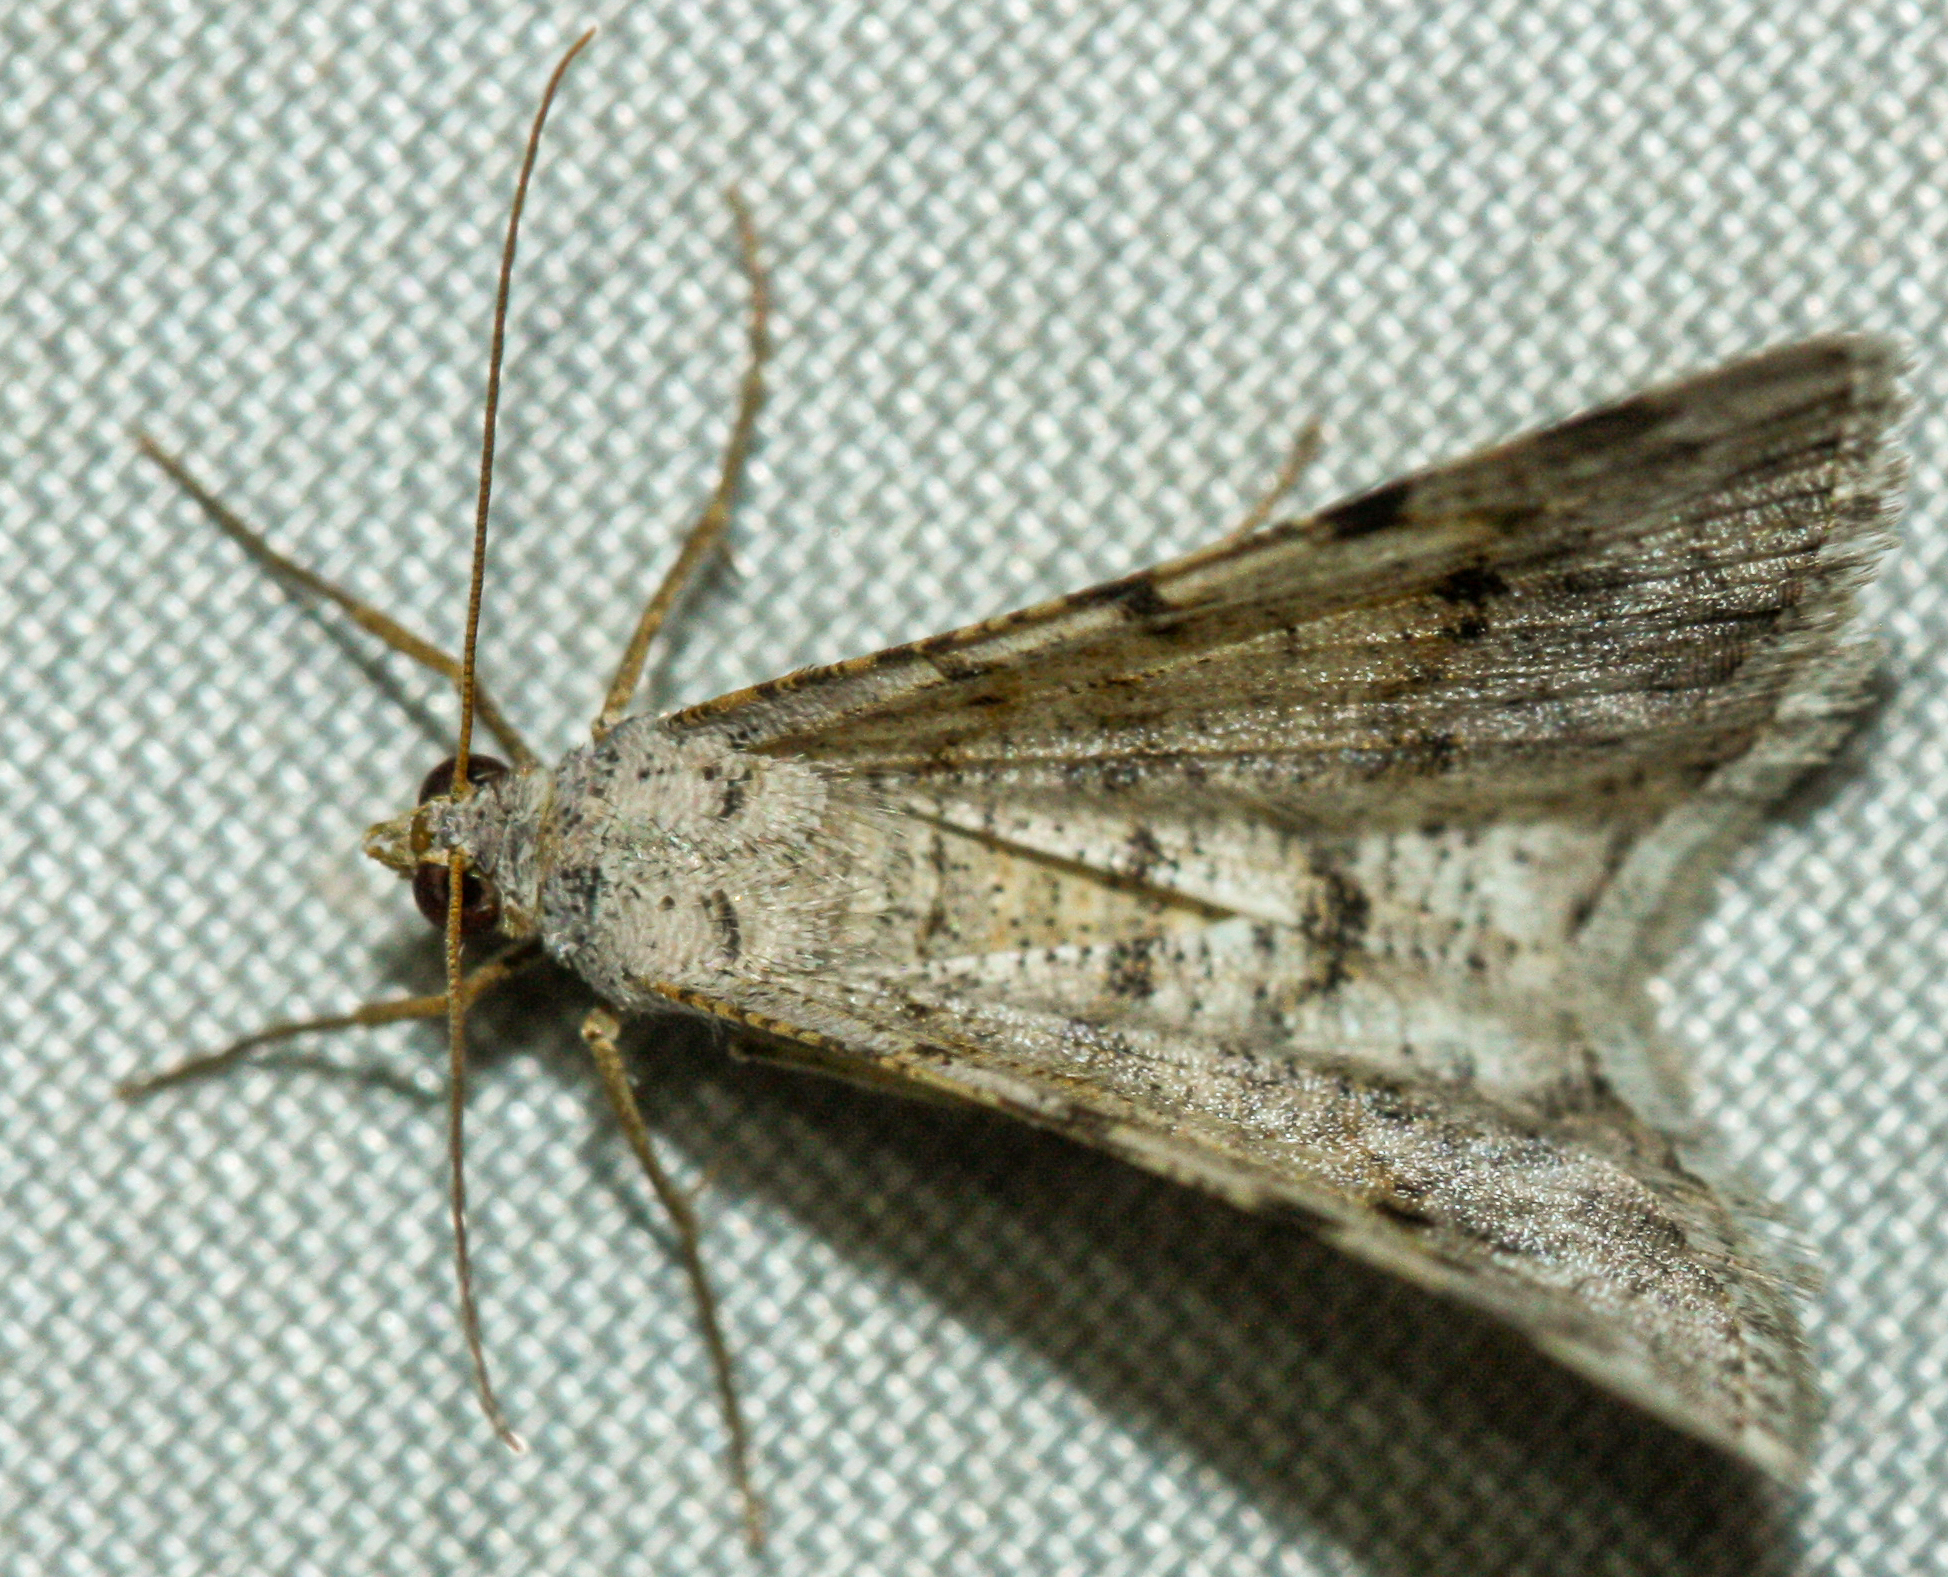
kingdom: Animalia
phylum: Arthropoda
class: Insecta
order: Lepidoptera
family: Geometridae
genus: Digrammia
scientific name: Digrammia colorata
